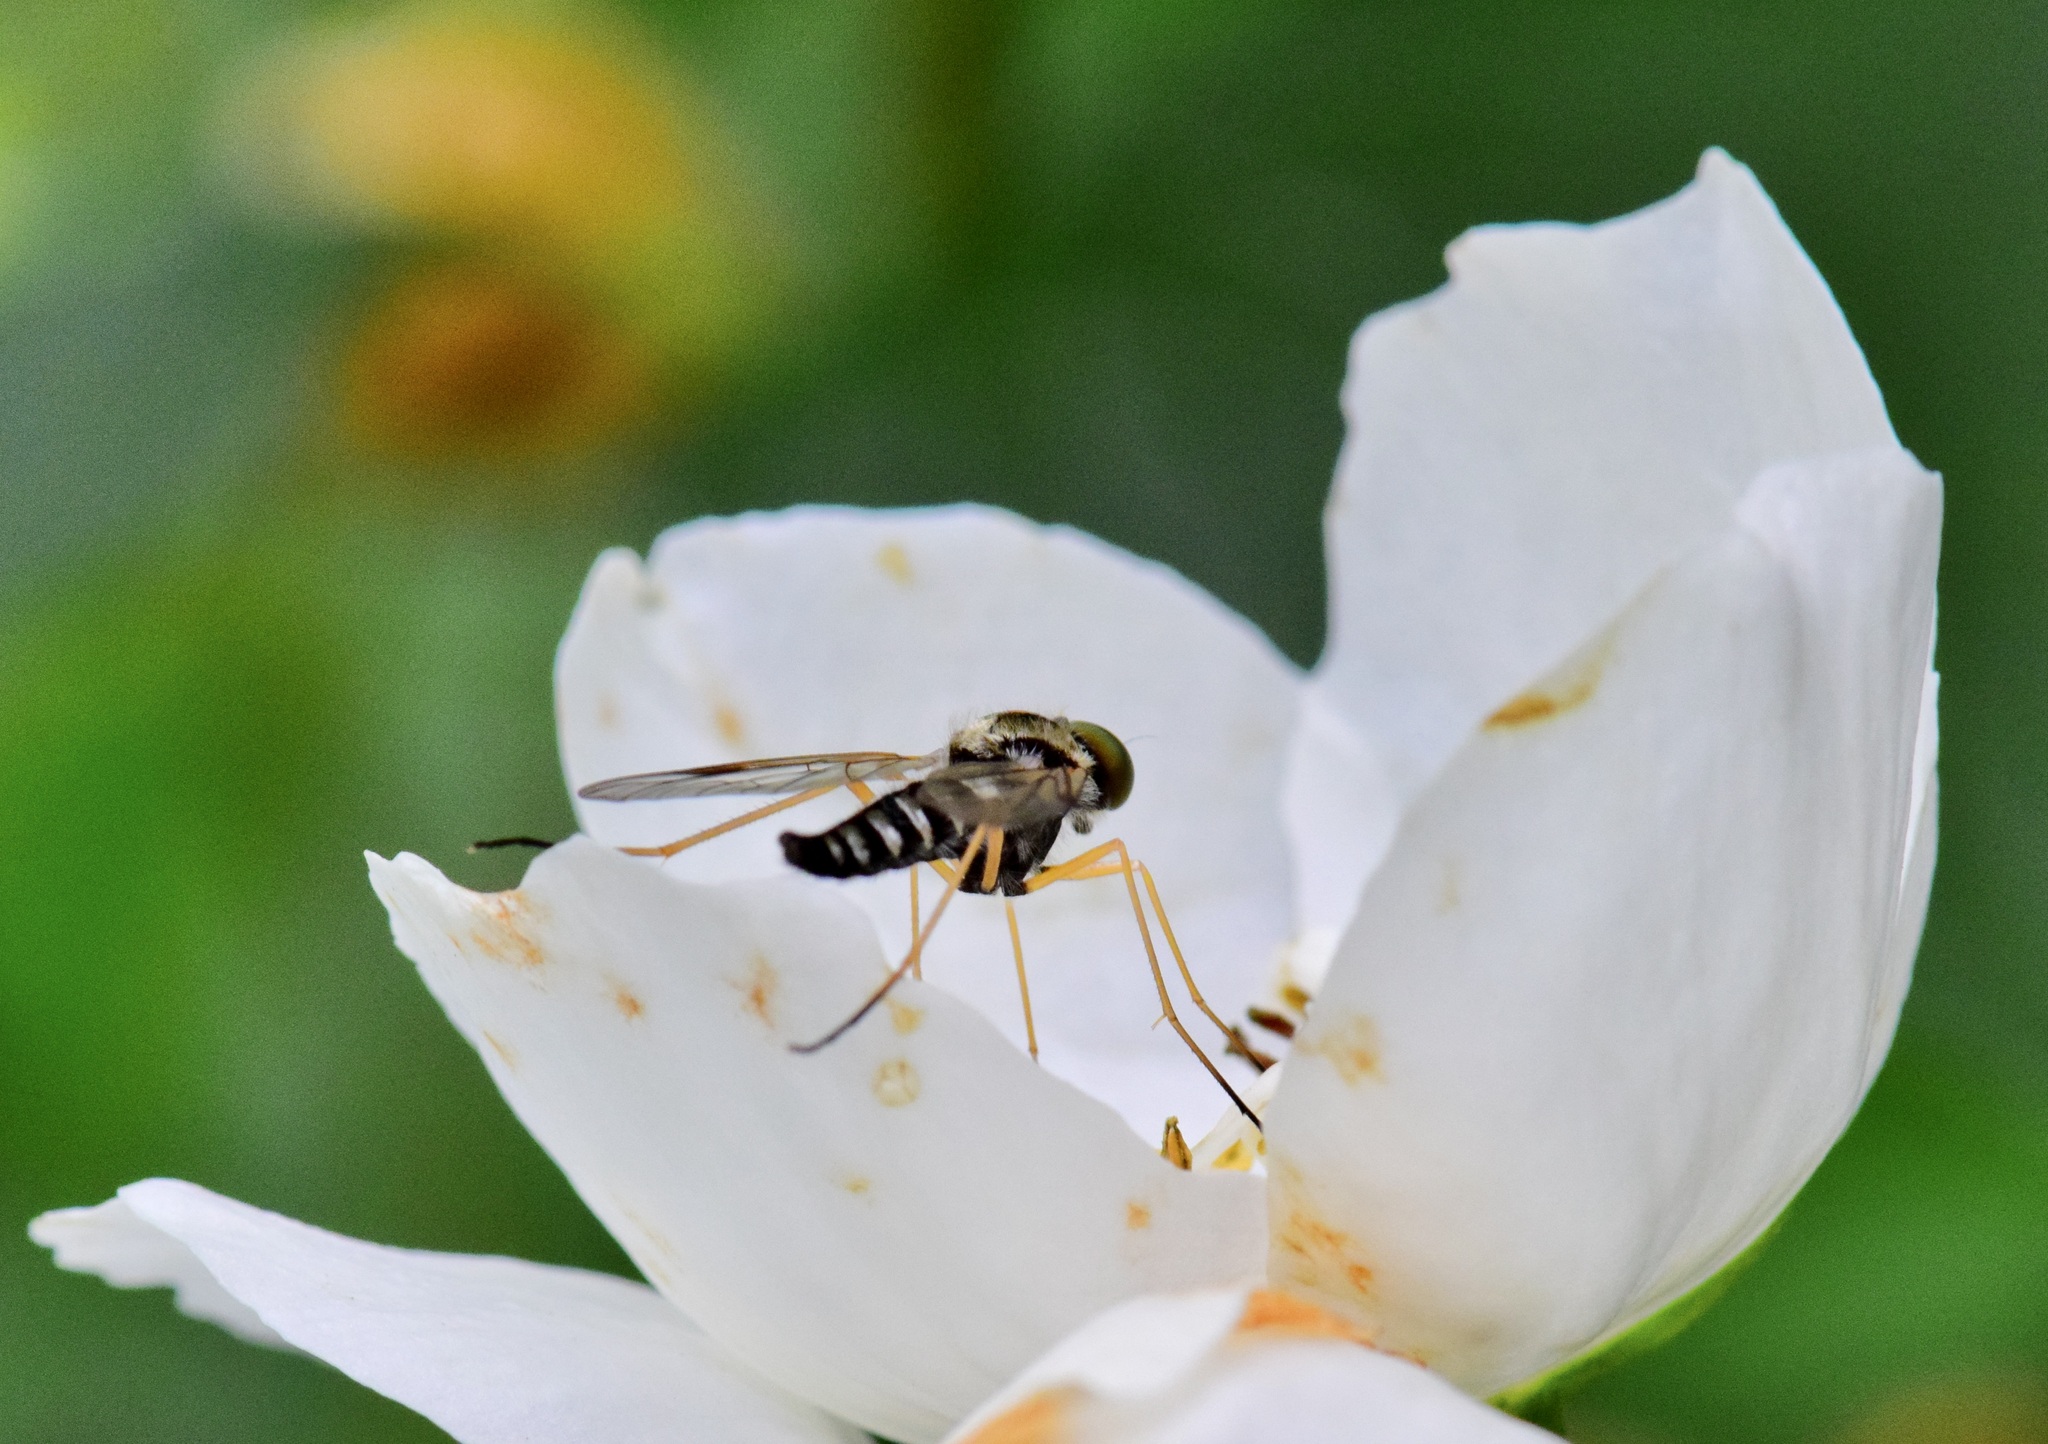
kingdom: Animalia
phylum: Arthropoda
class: Insecta
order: Diptera
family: Rhagionidae
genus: Chrysopilus
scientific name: Chrysopilus ornatus
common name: Ornate snipe fly
